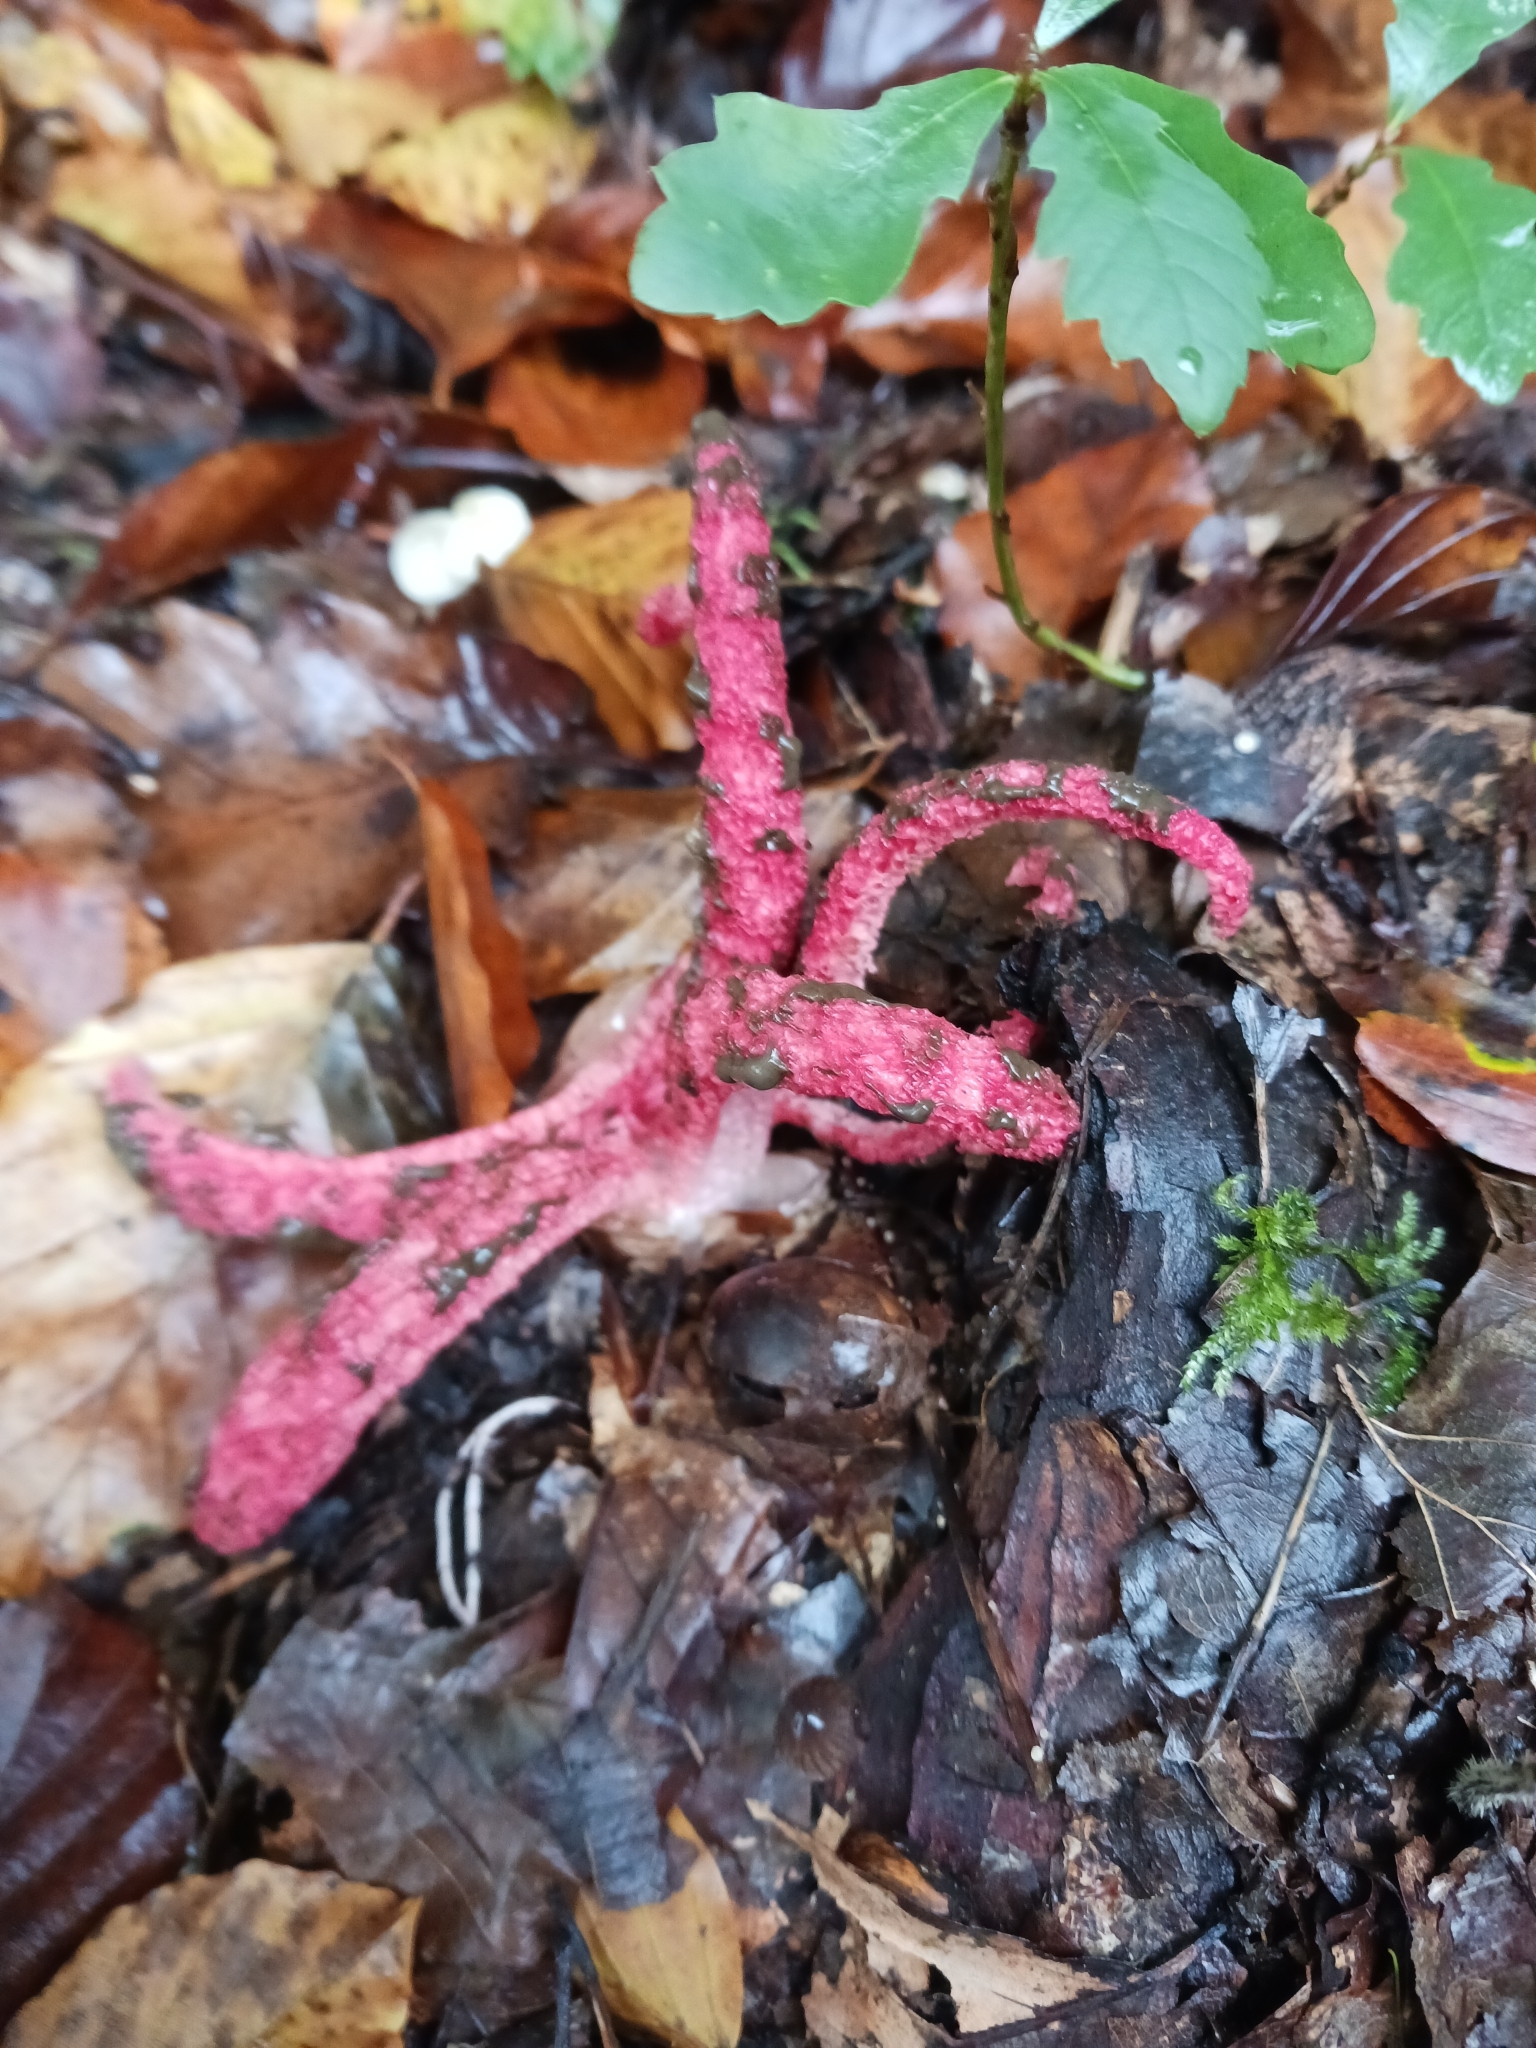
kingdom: Fungi
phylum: Basidiomycota
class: Agaricomycetes
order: Phallales
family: Phallaceae
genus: Clathrus
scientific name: Clathrus archeri
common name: Devil's fingers
